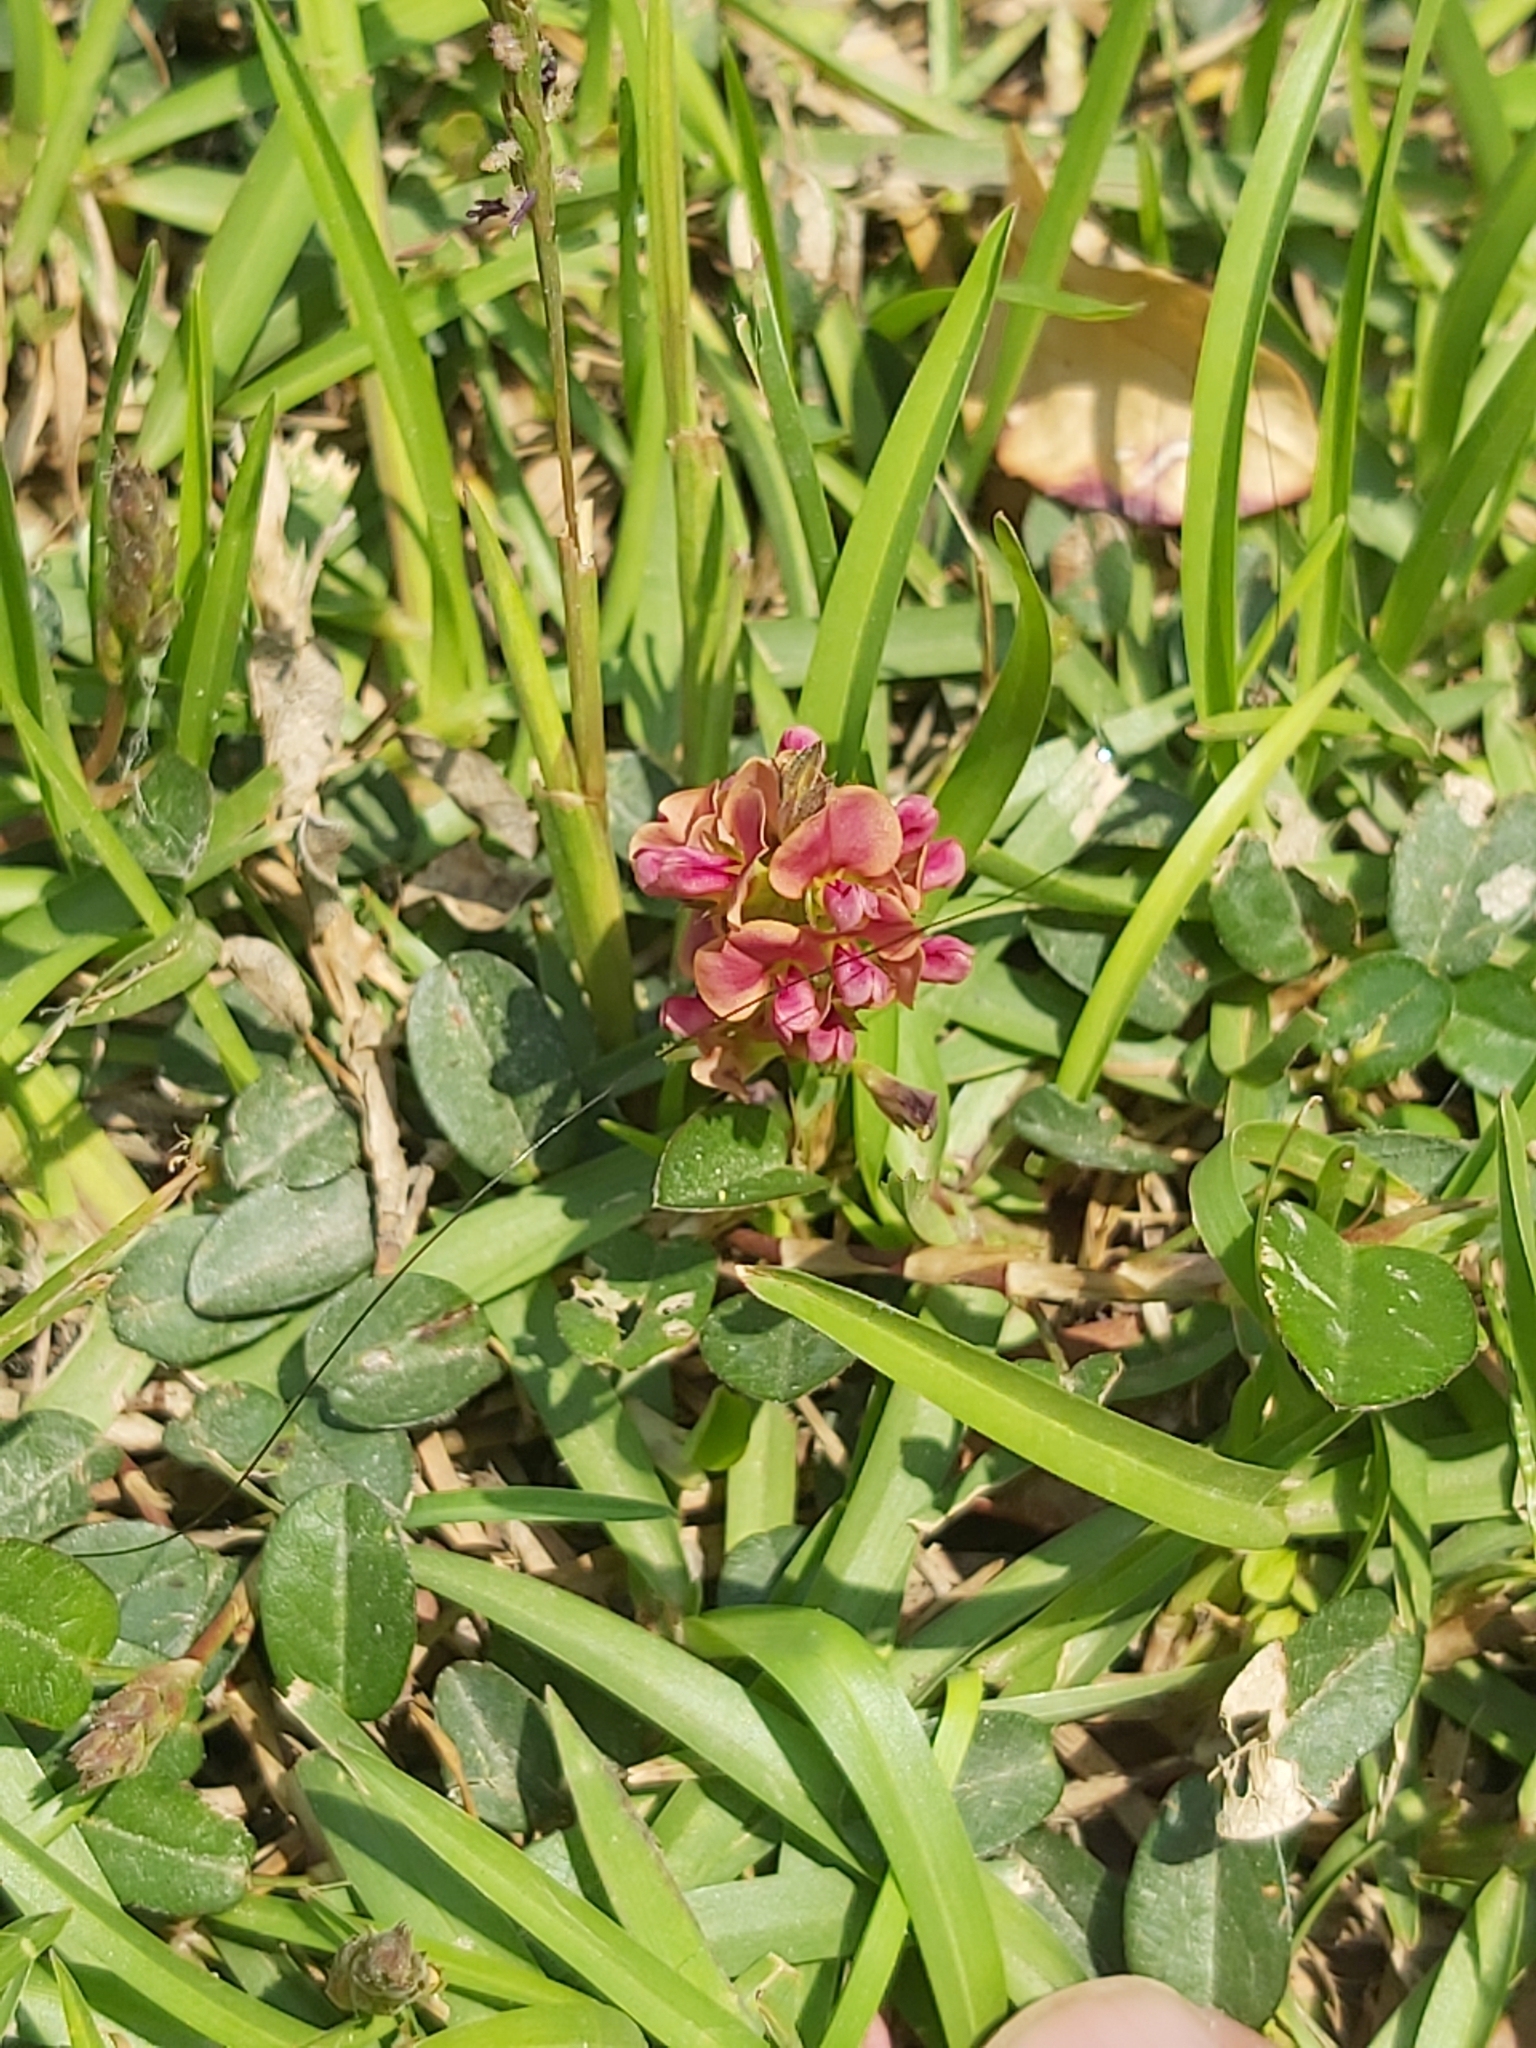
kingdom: Plantae
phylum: Tracheophyta
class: Magnoliopsida
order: Fabales
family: Fabaceae
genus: Alysicarpus
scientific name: Alysicarpus vaginalis
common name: White moneywort
